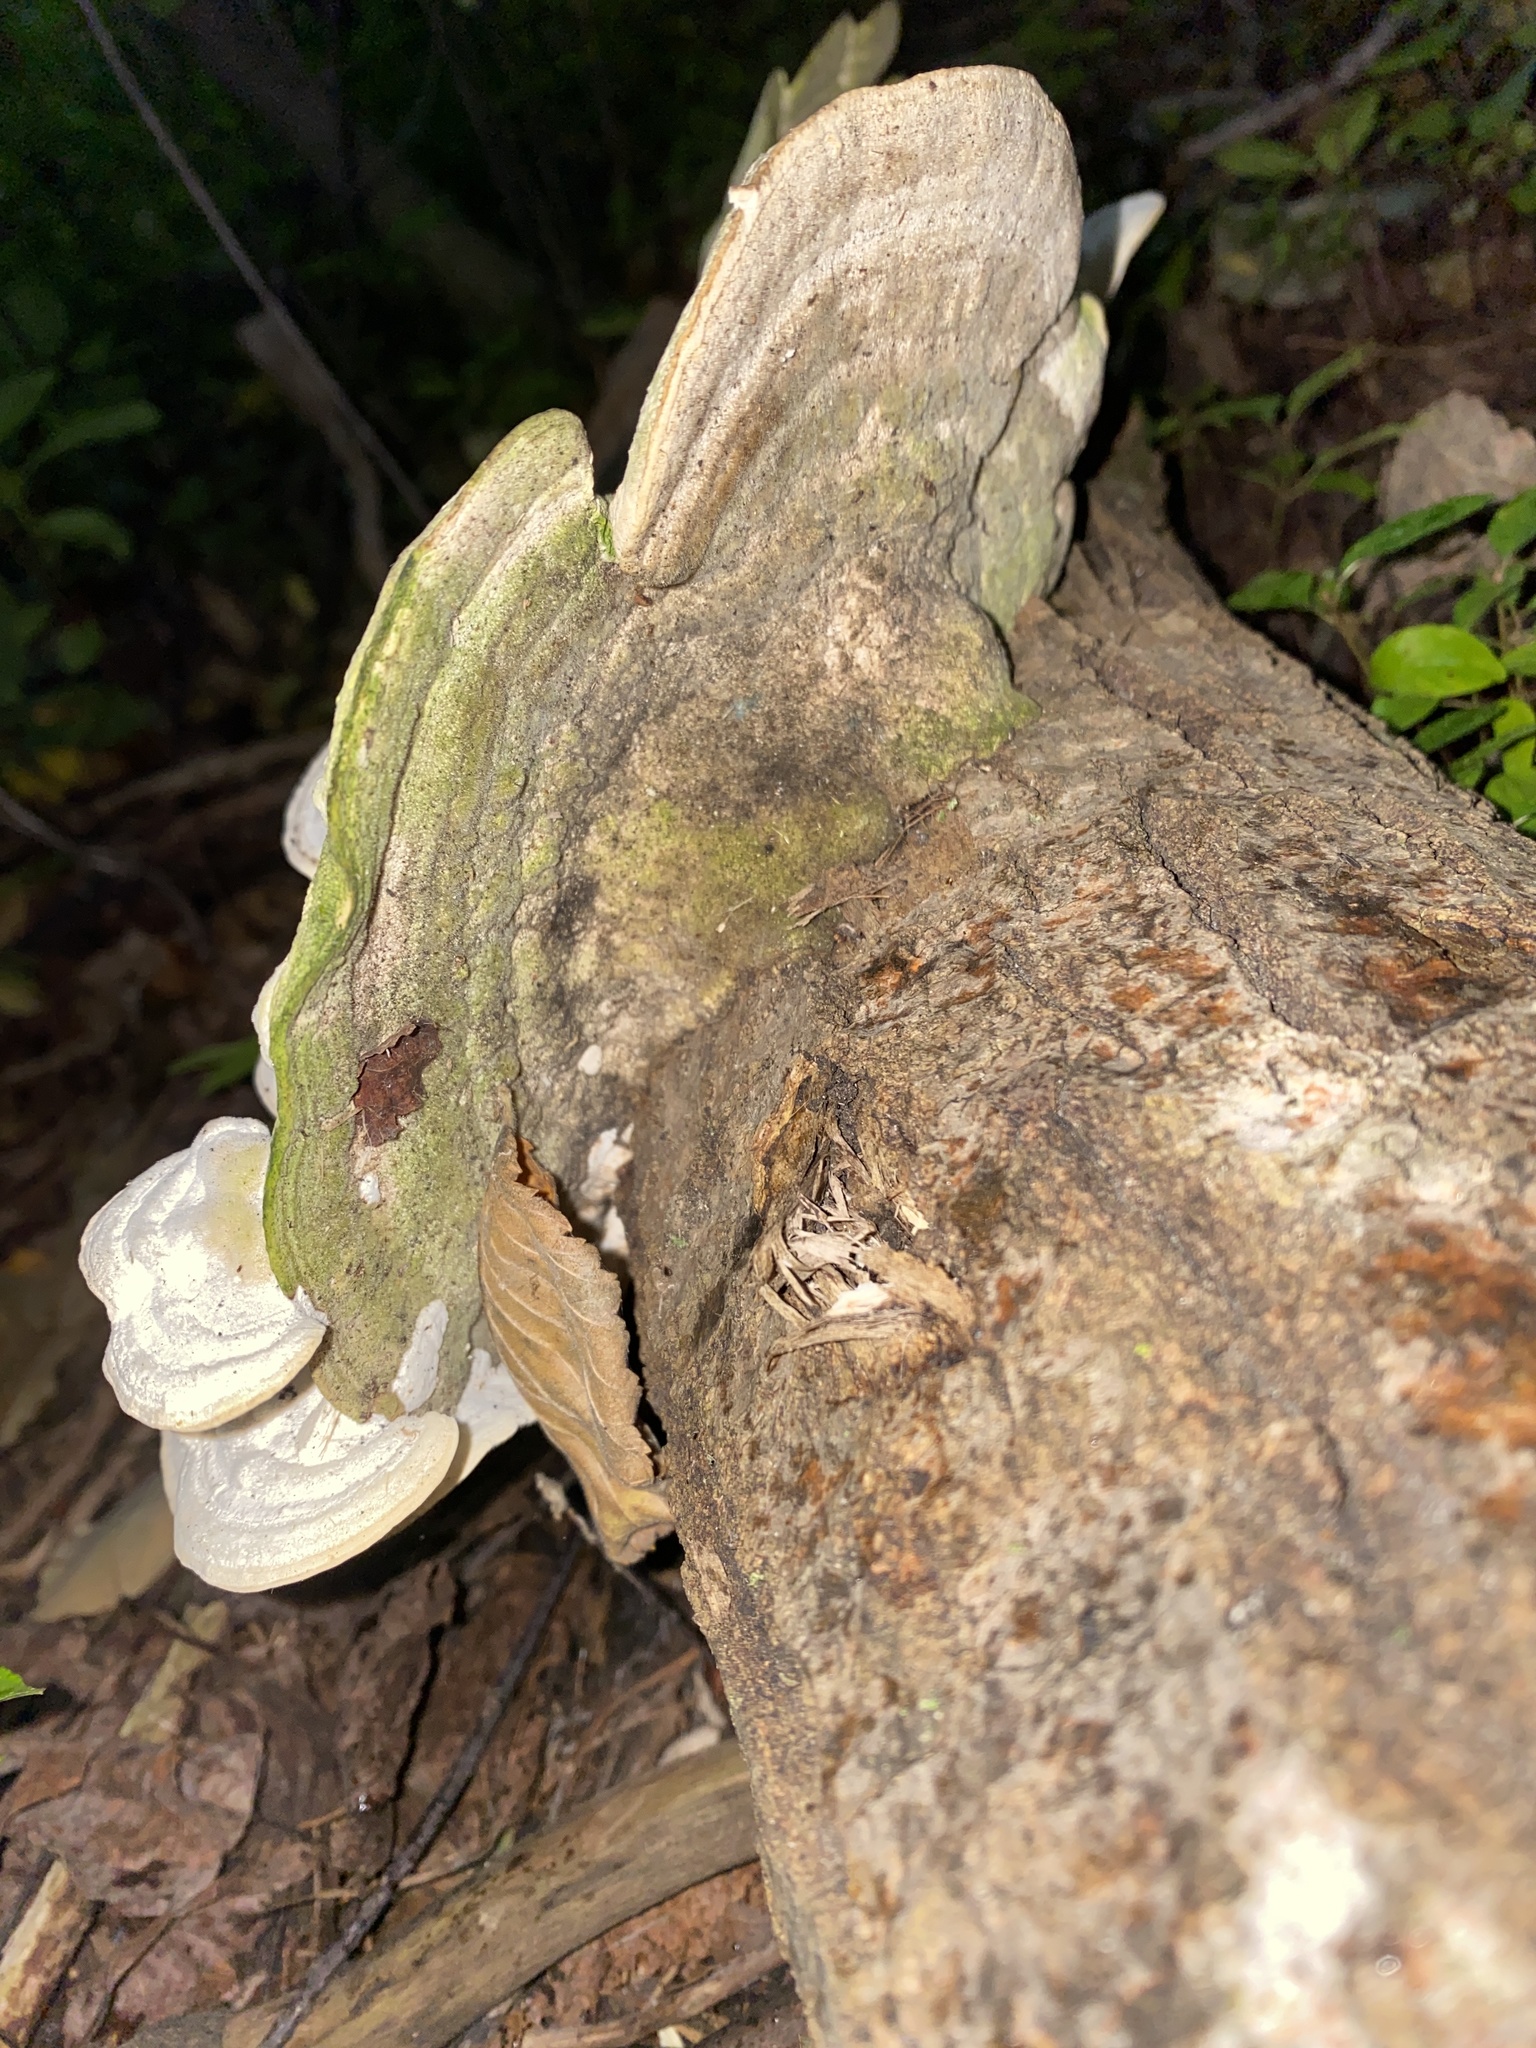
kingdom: Fungi
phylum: Basidiomycota
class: Agaricomycetes
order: Polyporales
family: Polyporaceae
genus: Trametes
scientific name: Trametes gibbosa
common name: Lumpy bracket
